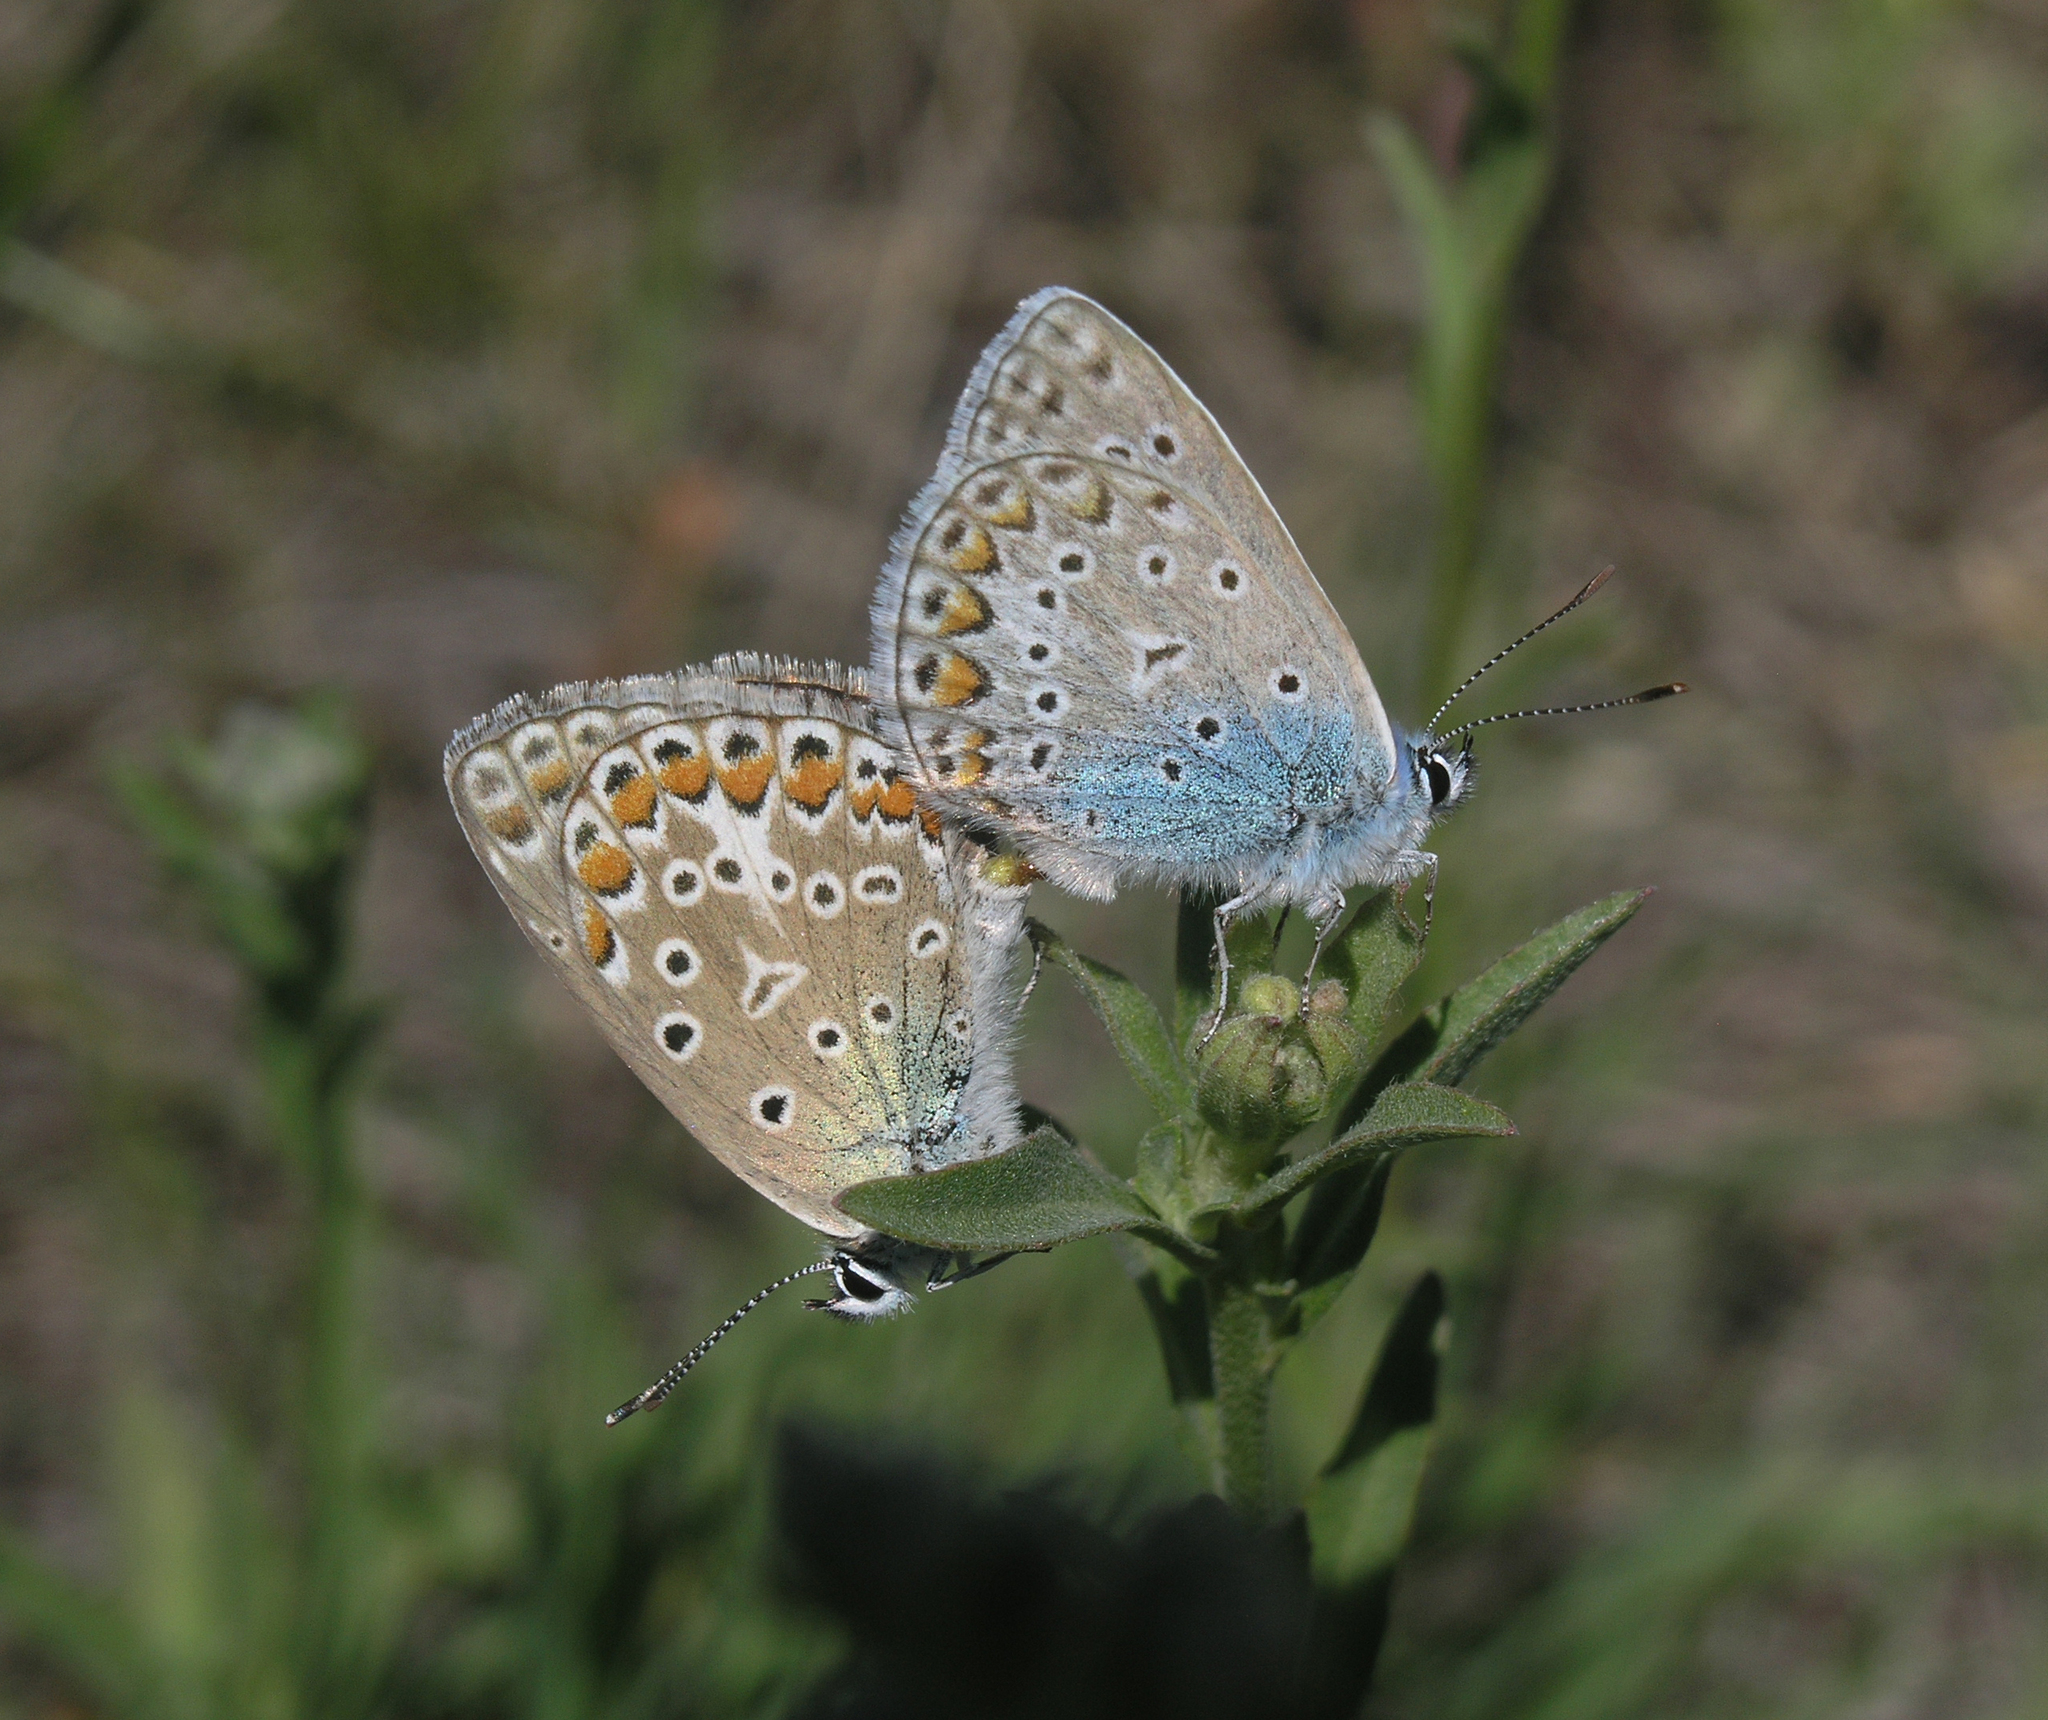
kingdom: Animalia
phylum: Arthropoda
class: Insecta
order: Lepidoptera
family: Lycaenidae
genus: Polyommatus
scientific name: Polyommatus icarus
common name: Common blue
